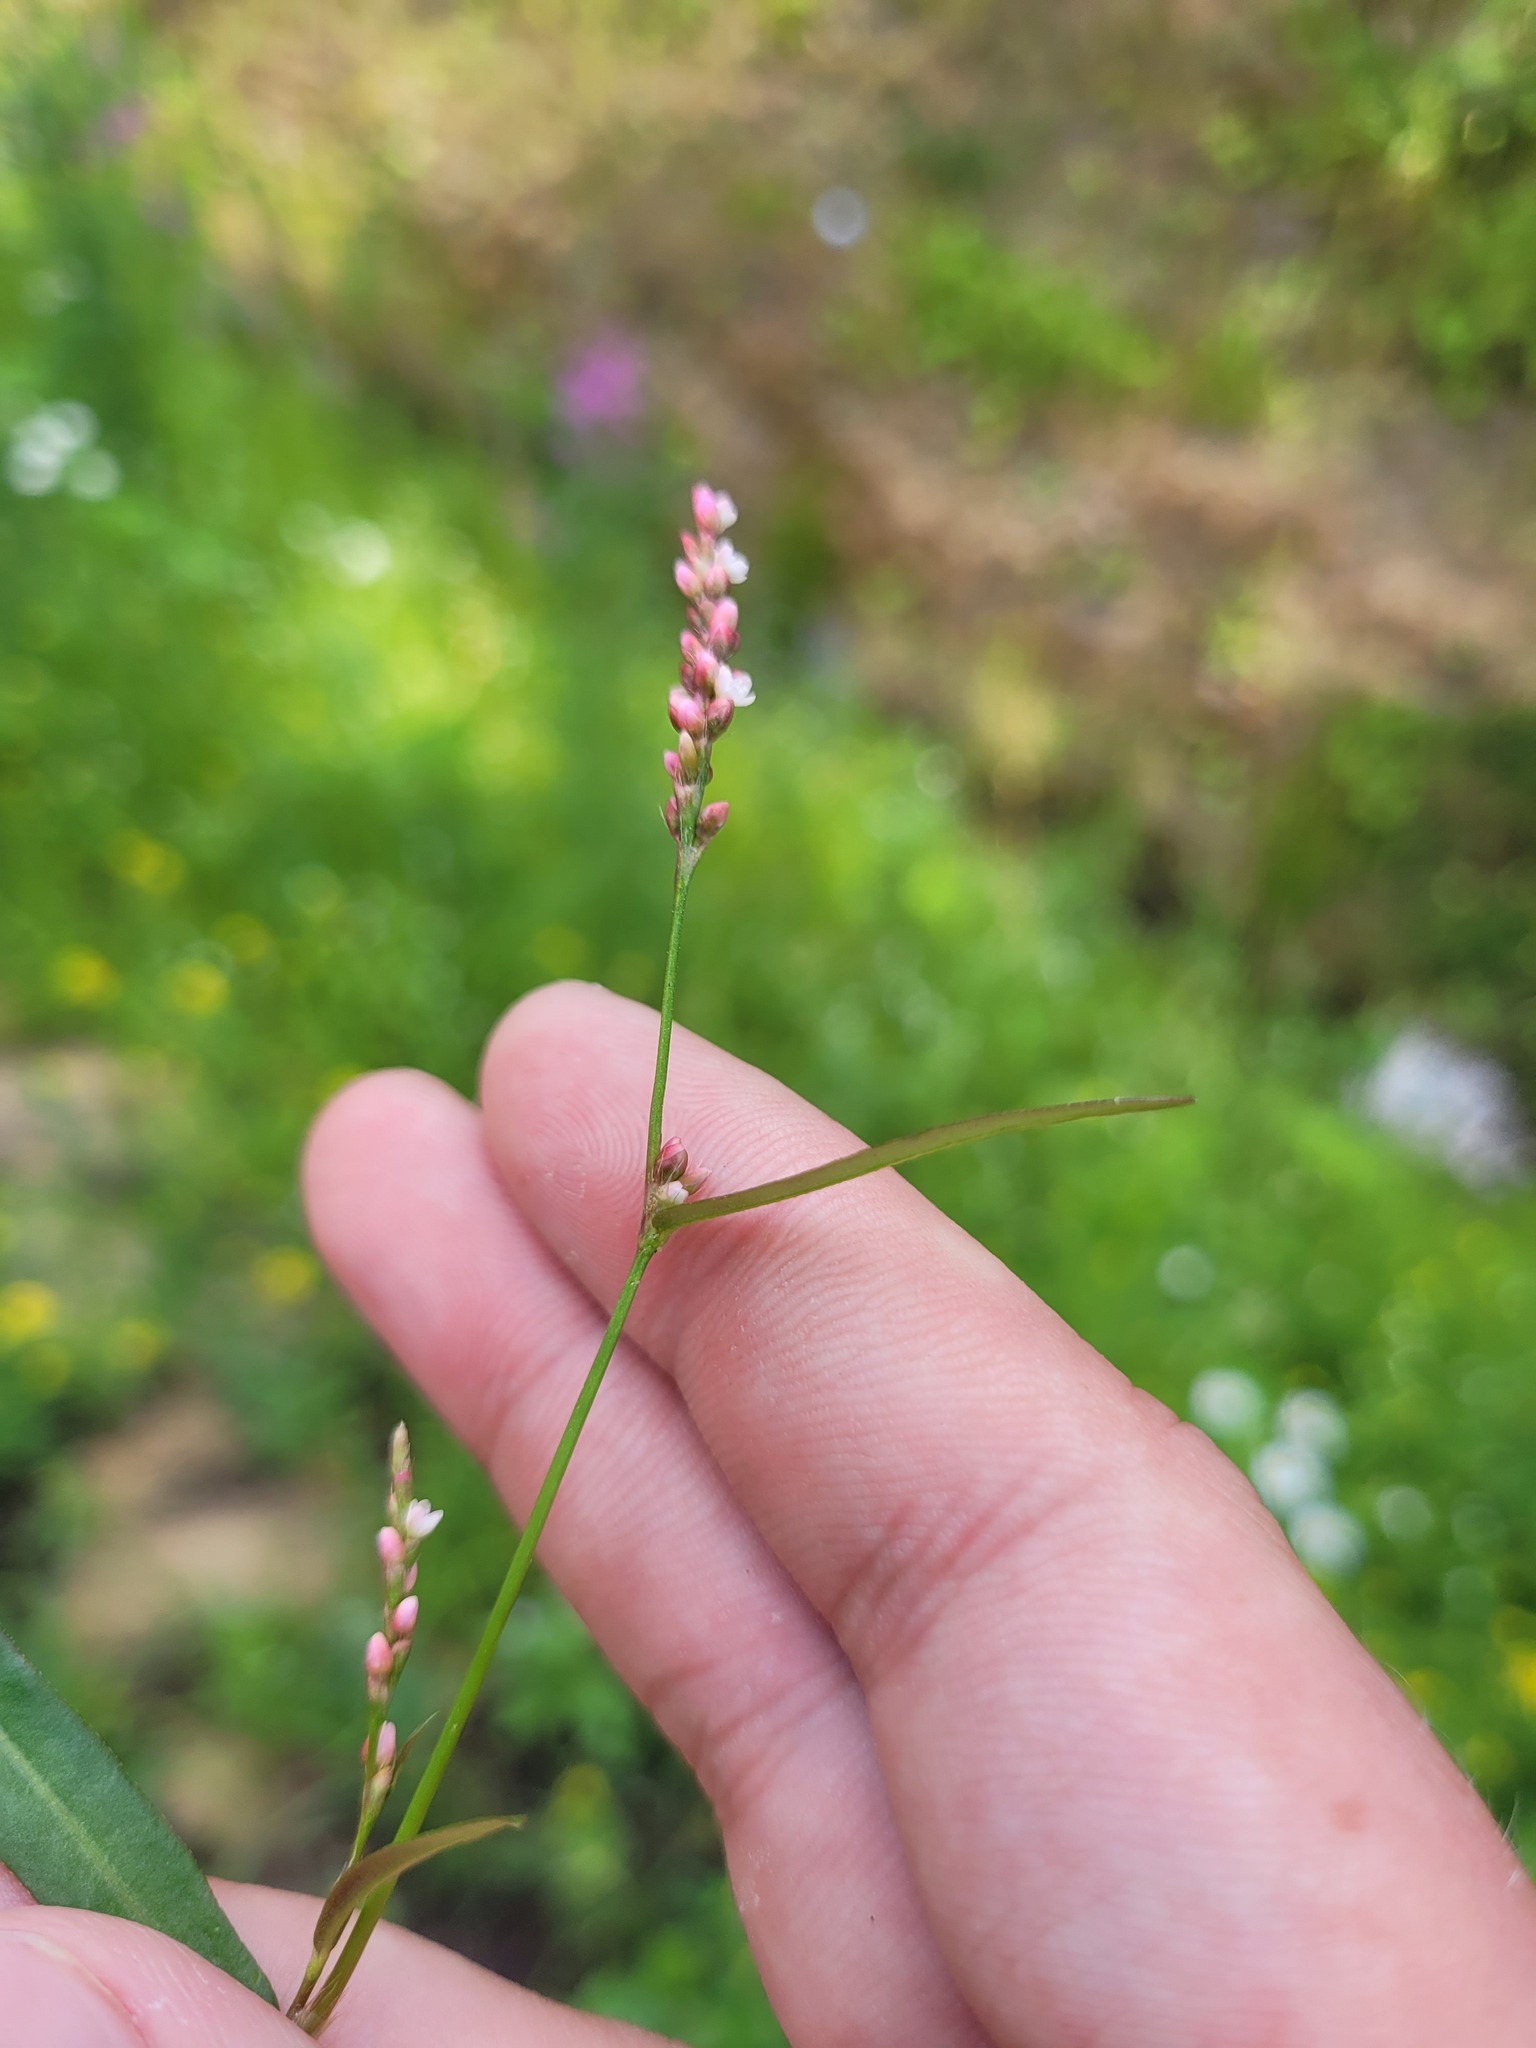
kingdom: Plantae
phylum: Tracheophyta
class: Magnoliopsida
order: Caryophyllales
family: Polygonaceae
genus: Persicaria
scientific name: Persicaria minor
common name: Small water-pepper
